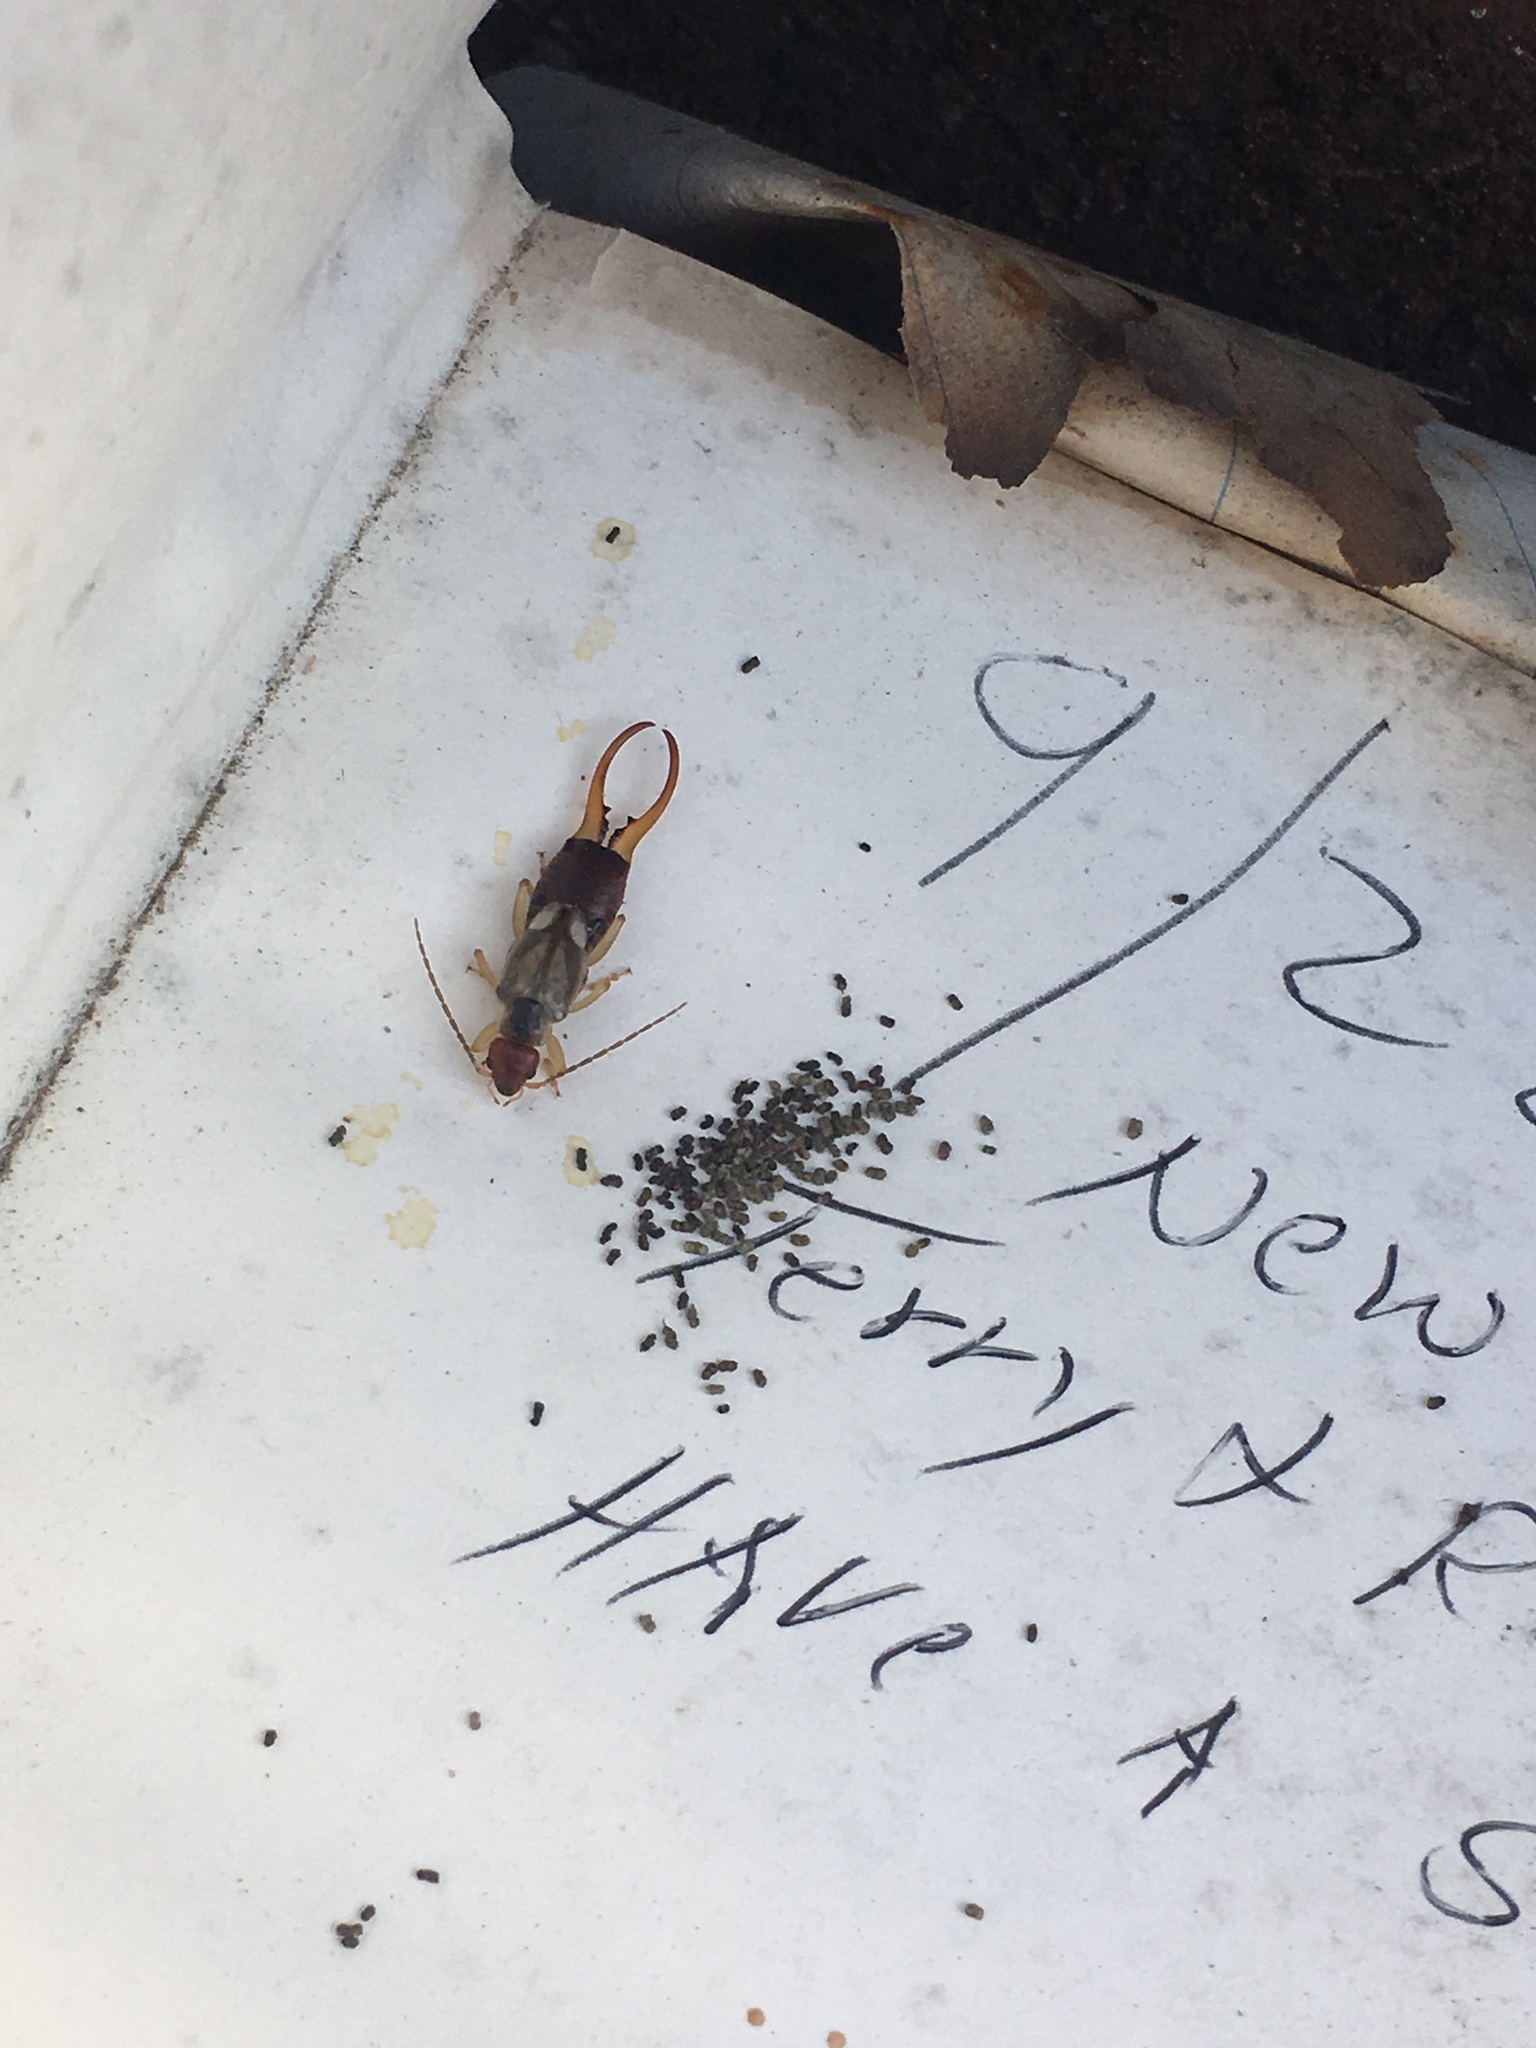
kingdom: Animalia
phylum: Arthropoda
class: Insecta
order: Dermaptera
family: Forficulidae
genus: Forficula
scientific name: Forficula
